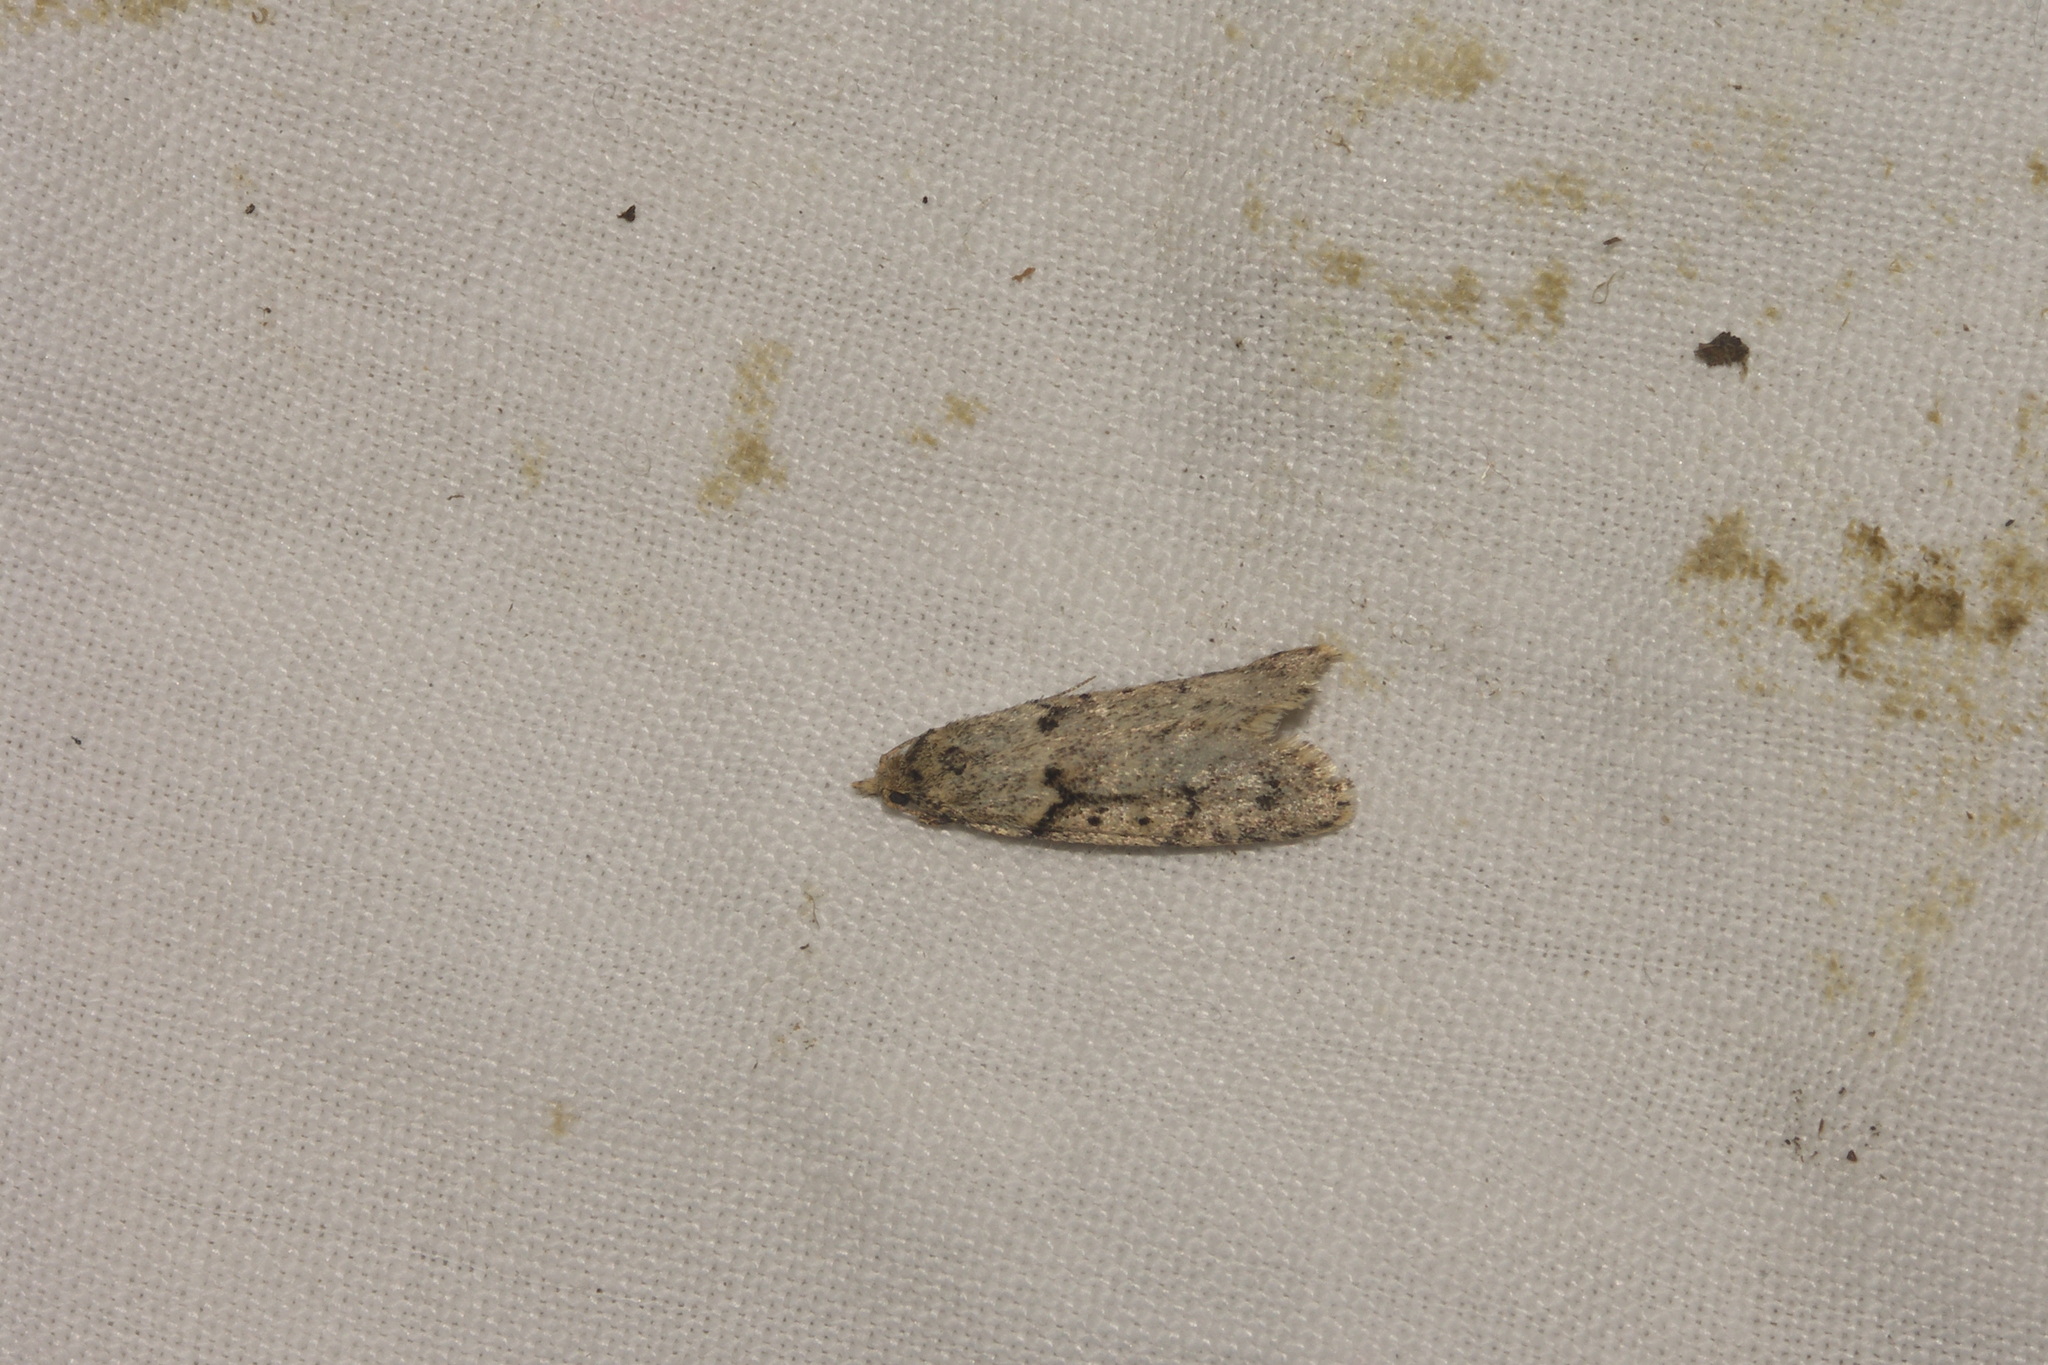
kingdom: Animalia
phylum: Arthropoda
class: Insecta
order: Lepidoptera
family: Lypusidae
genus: Diurnea
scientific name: Diurnea fagella
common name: March tubic
